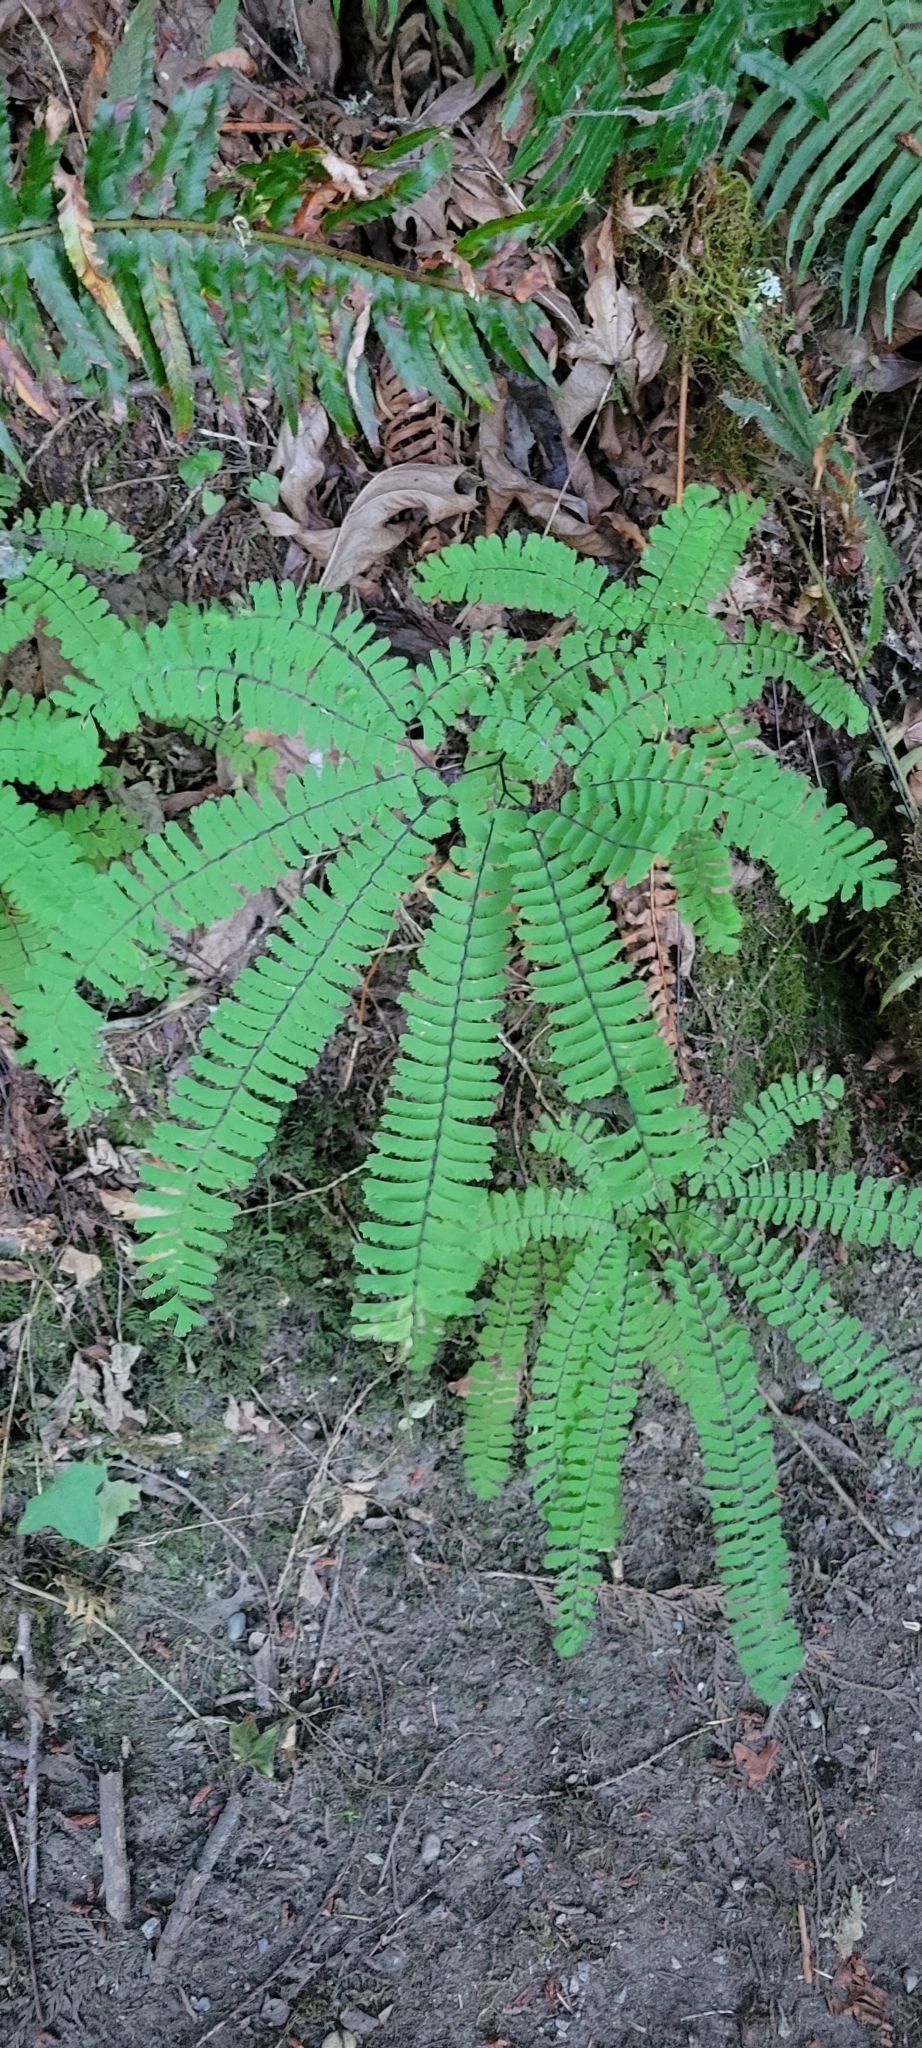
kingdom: Plantae
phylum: Tracheophyta
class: Polypodiopsida
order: Polypodiales
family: Pteridaceae
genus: Adiantum
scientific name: Adiantum aleuticum
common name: Aleutian maidenhair fern
